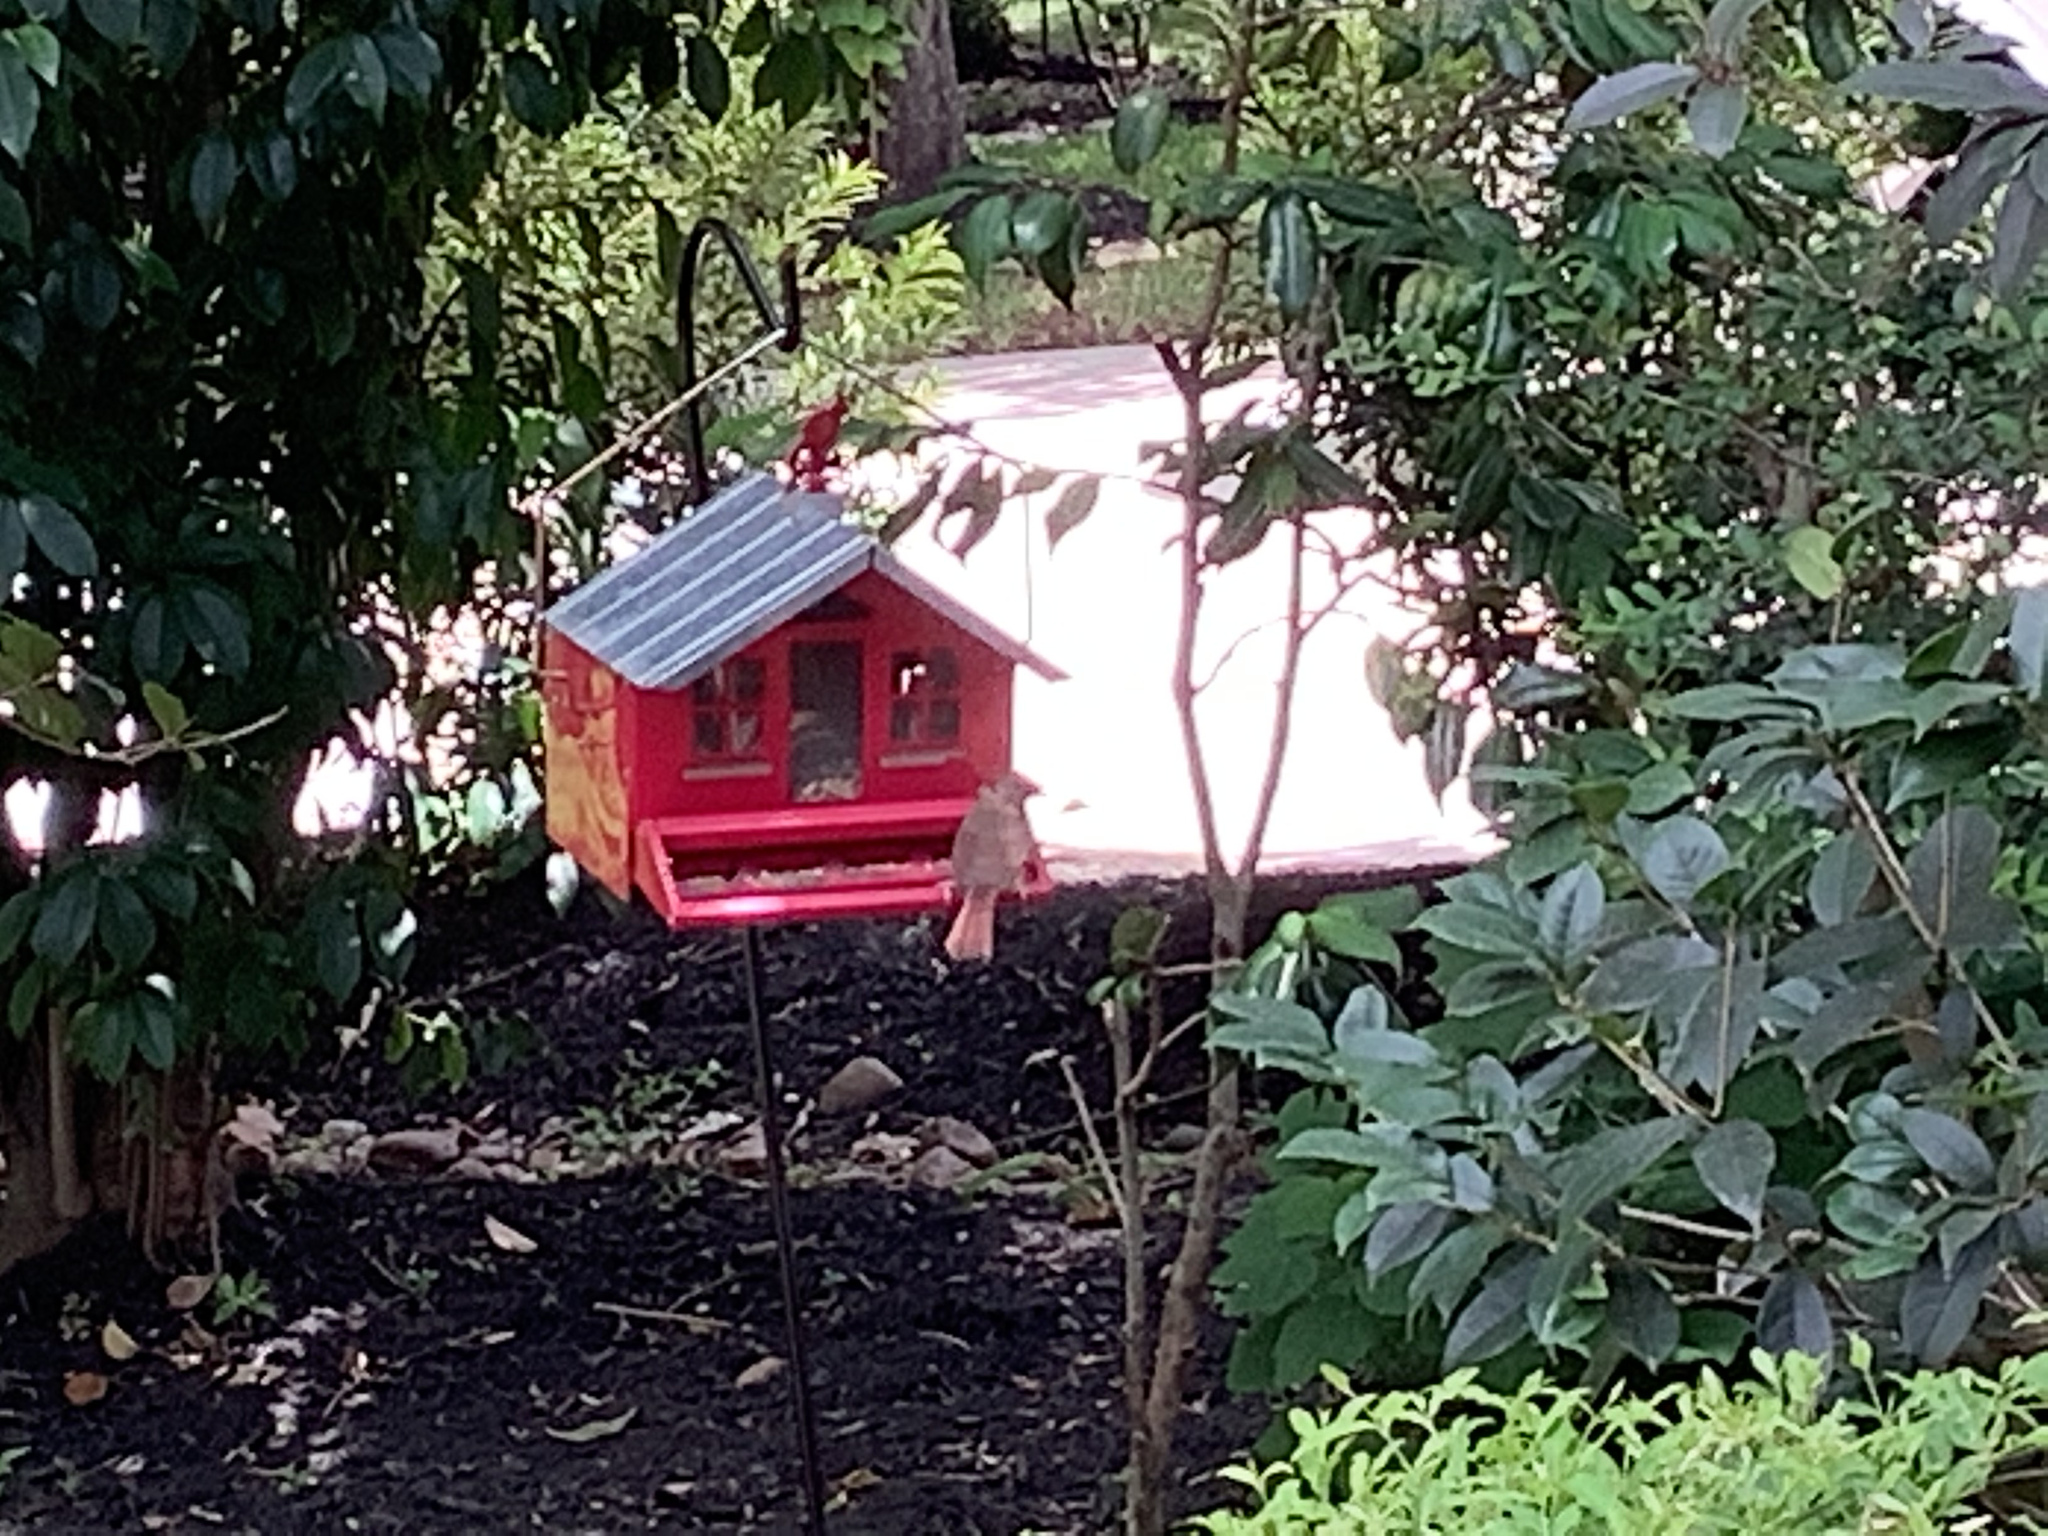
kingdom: Animalia
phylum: Chordata
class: Aves
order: Passeriformes
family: Cardinalidae
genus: Cardinalis
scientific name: Cardinalis cardinalis
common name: Northern cardinal
